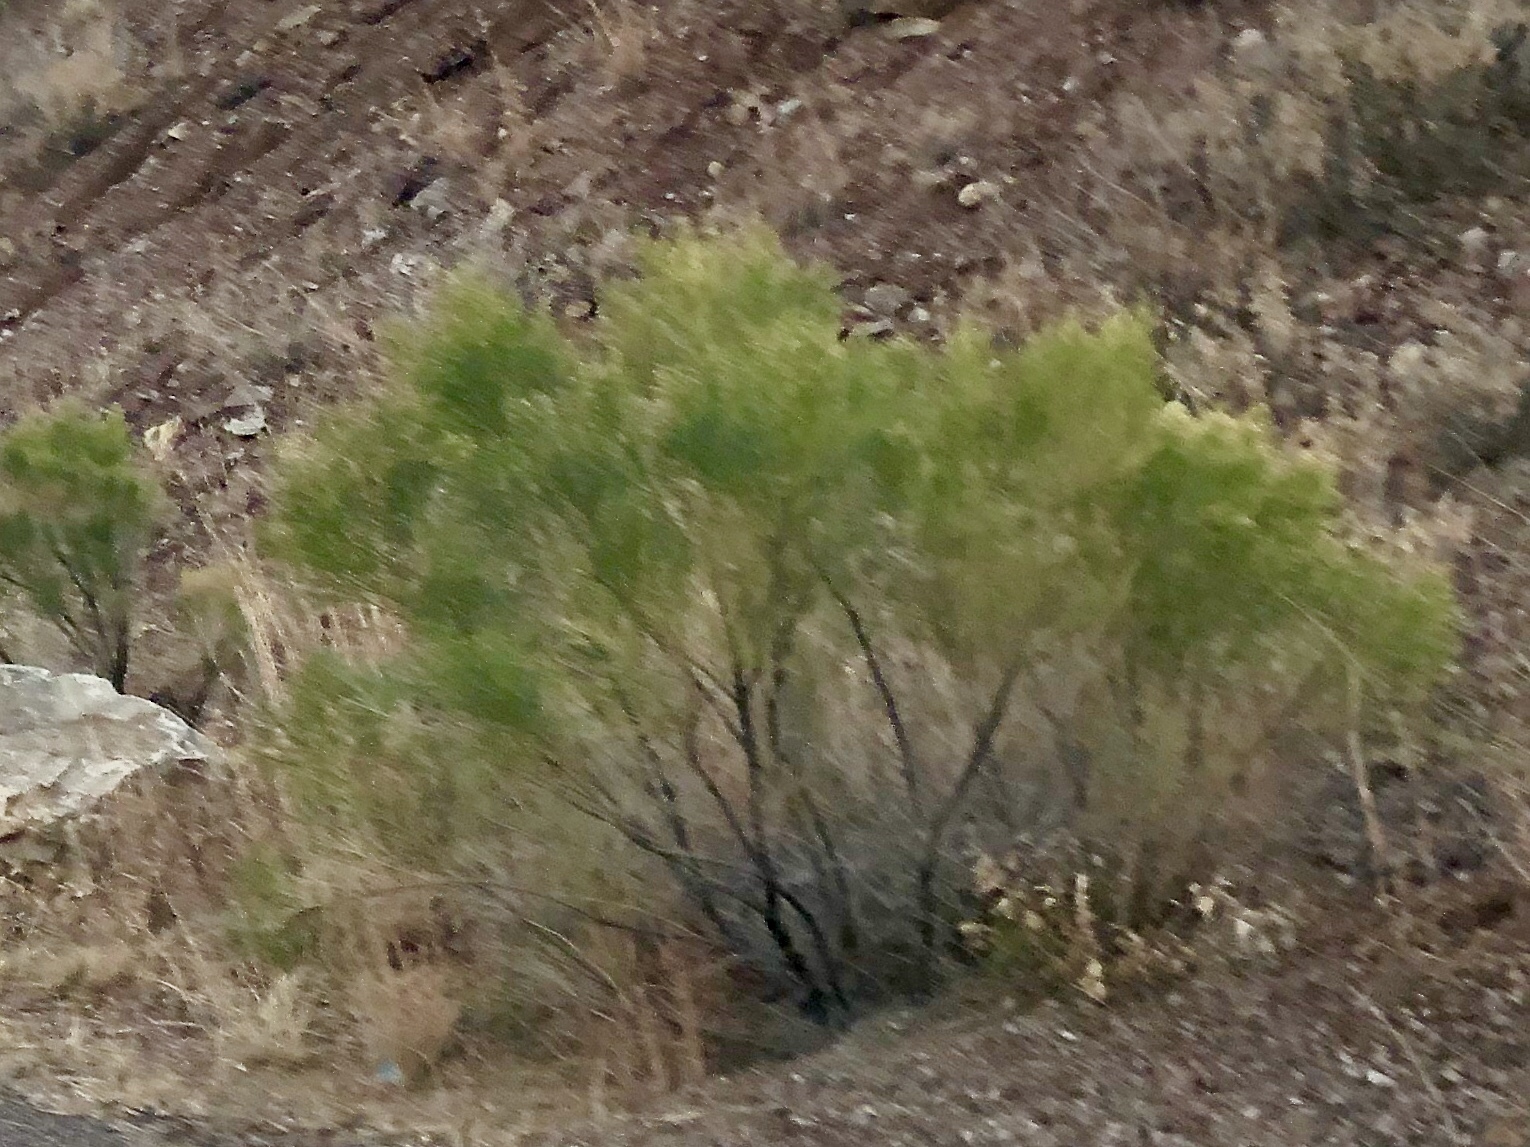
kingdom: Plantae
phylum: Tracheophyta
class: Magnoliopsida
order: Asterales
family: Asteraceae
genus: Baccharis
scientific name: Baccharis sarothroides
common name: Desert-broom
